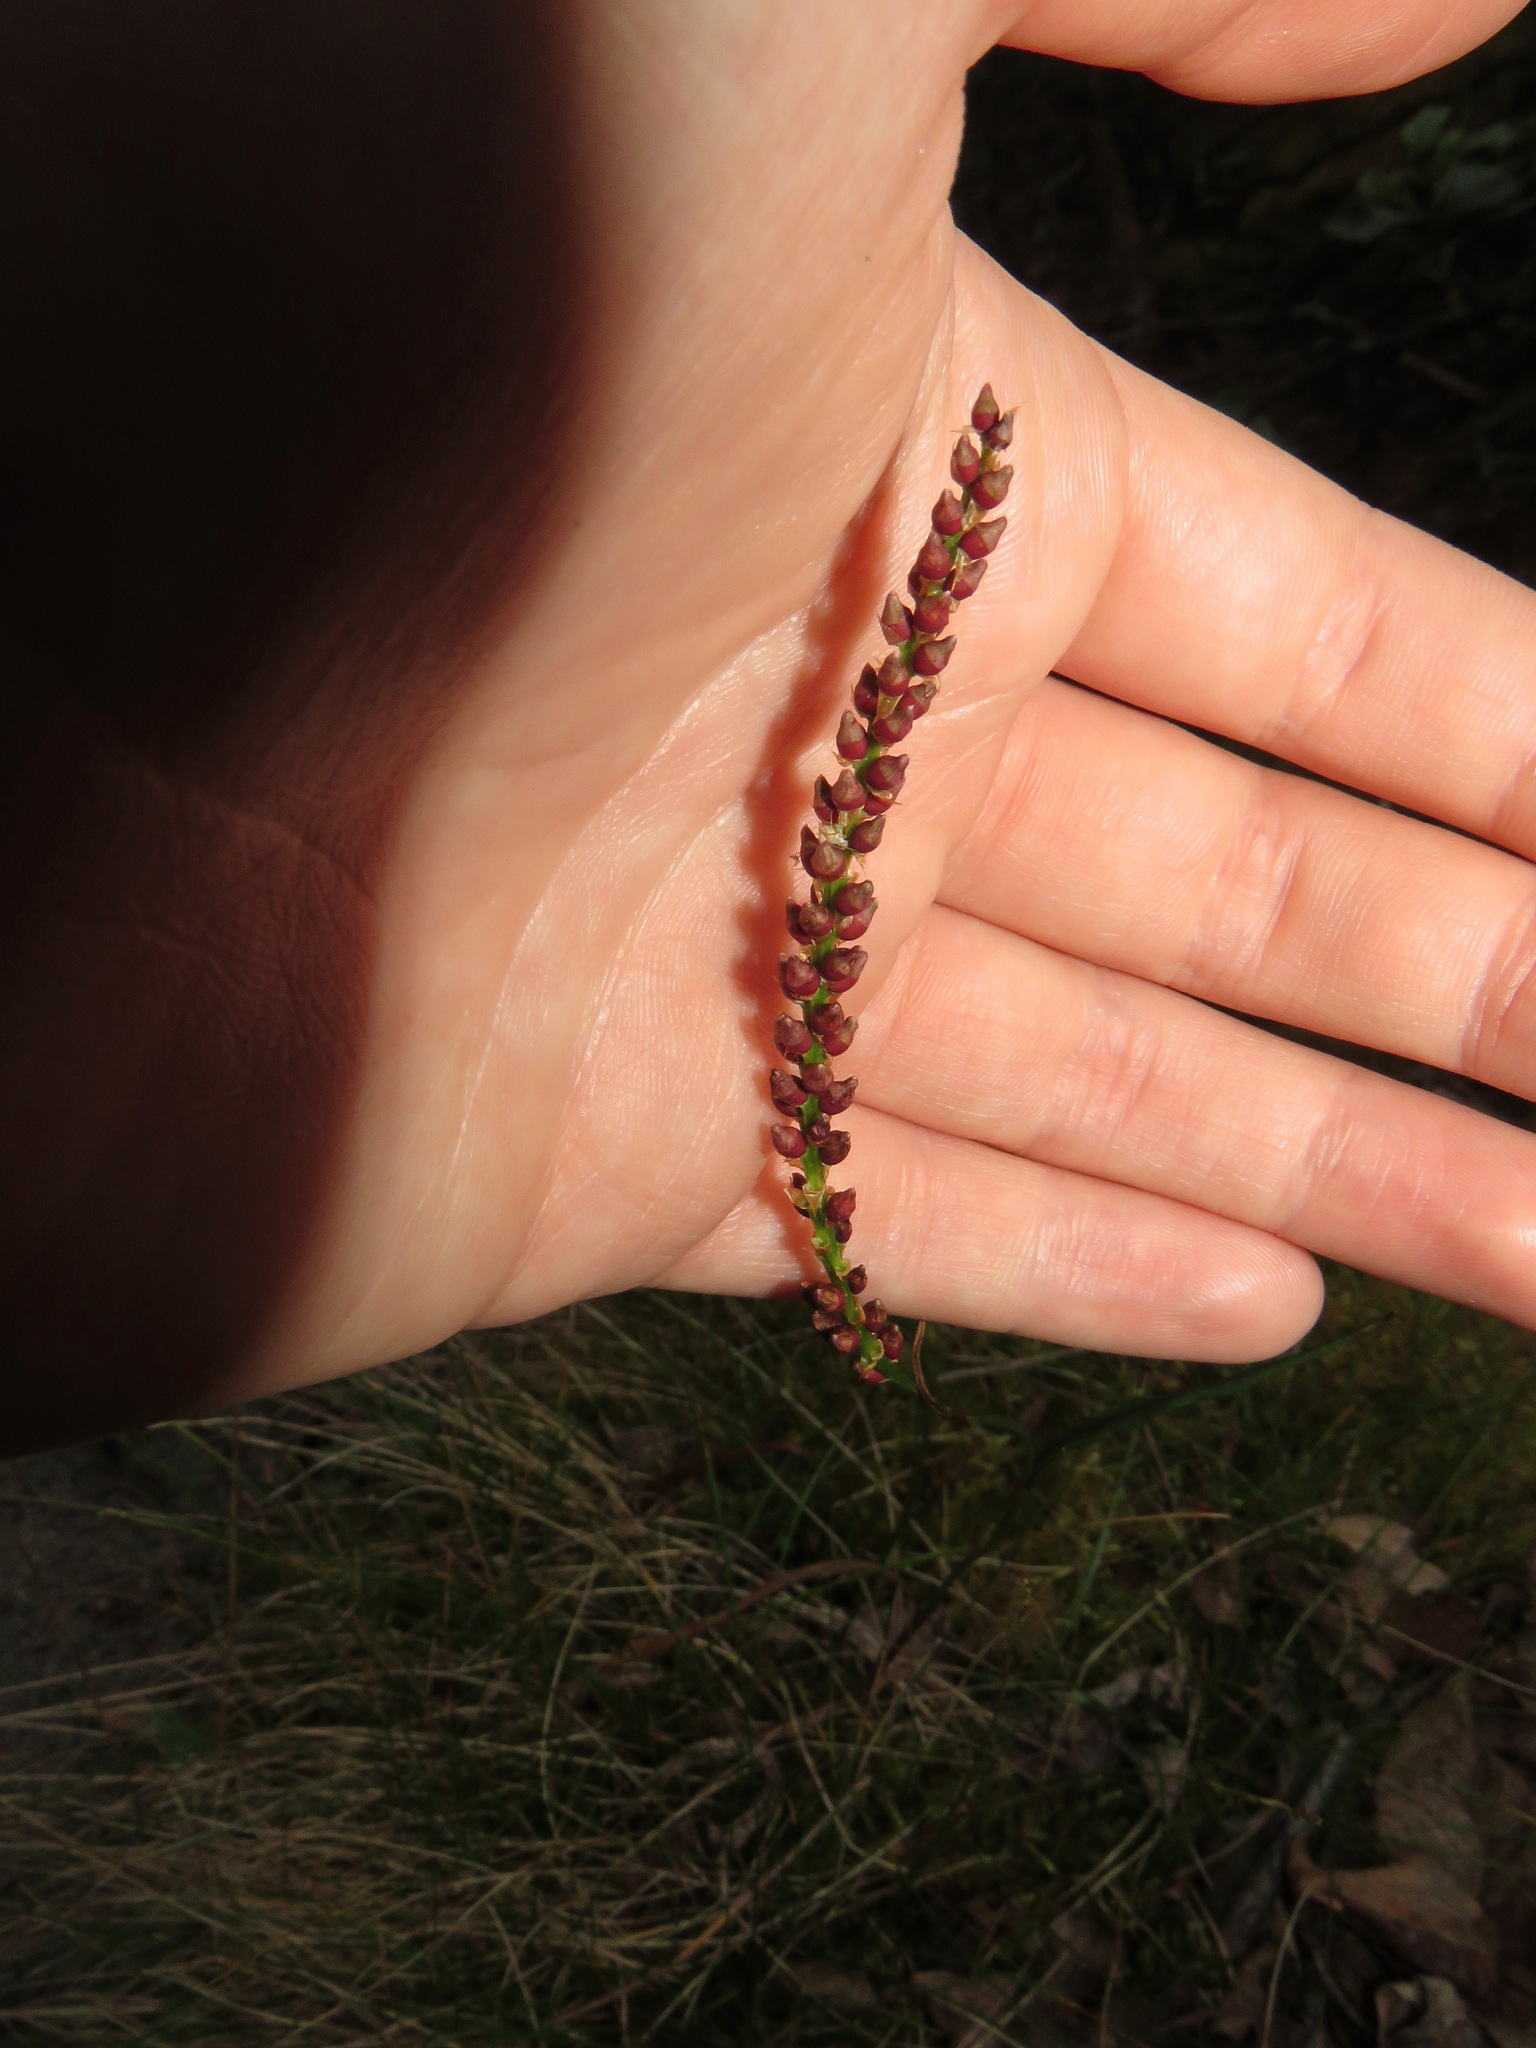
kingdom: Plantae
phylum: Tracheophyta
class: Magnoliopsida
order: Caryophyllales
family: Polygonaceae
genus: Bistorta
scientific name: Bistorta vivipara
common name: Alpine bistort
